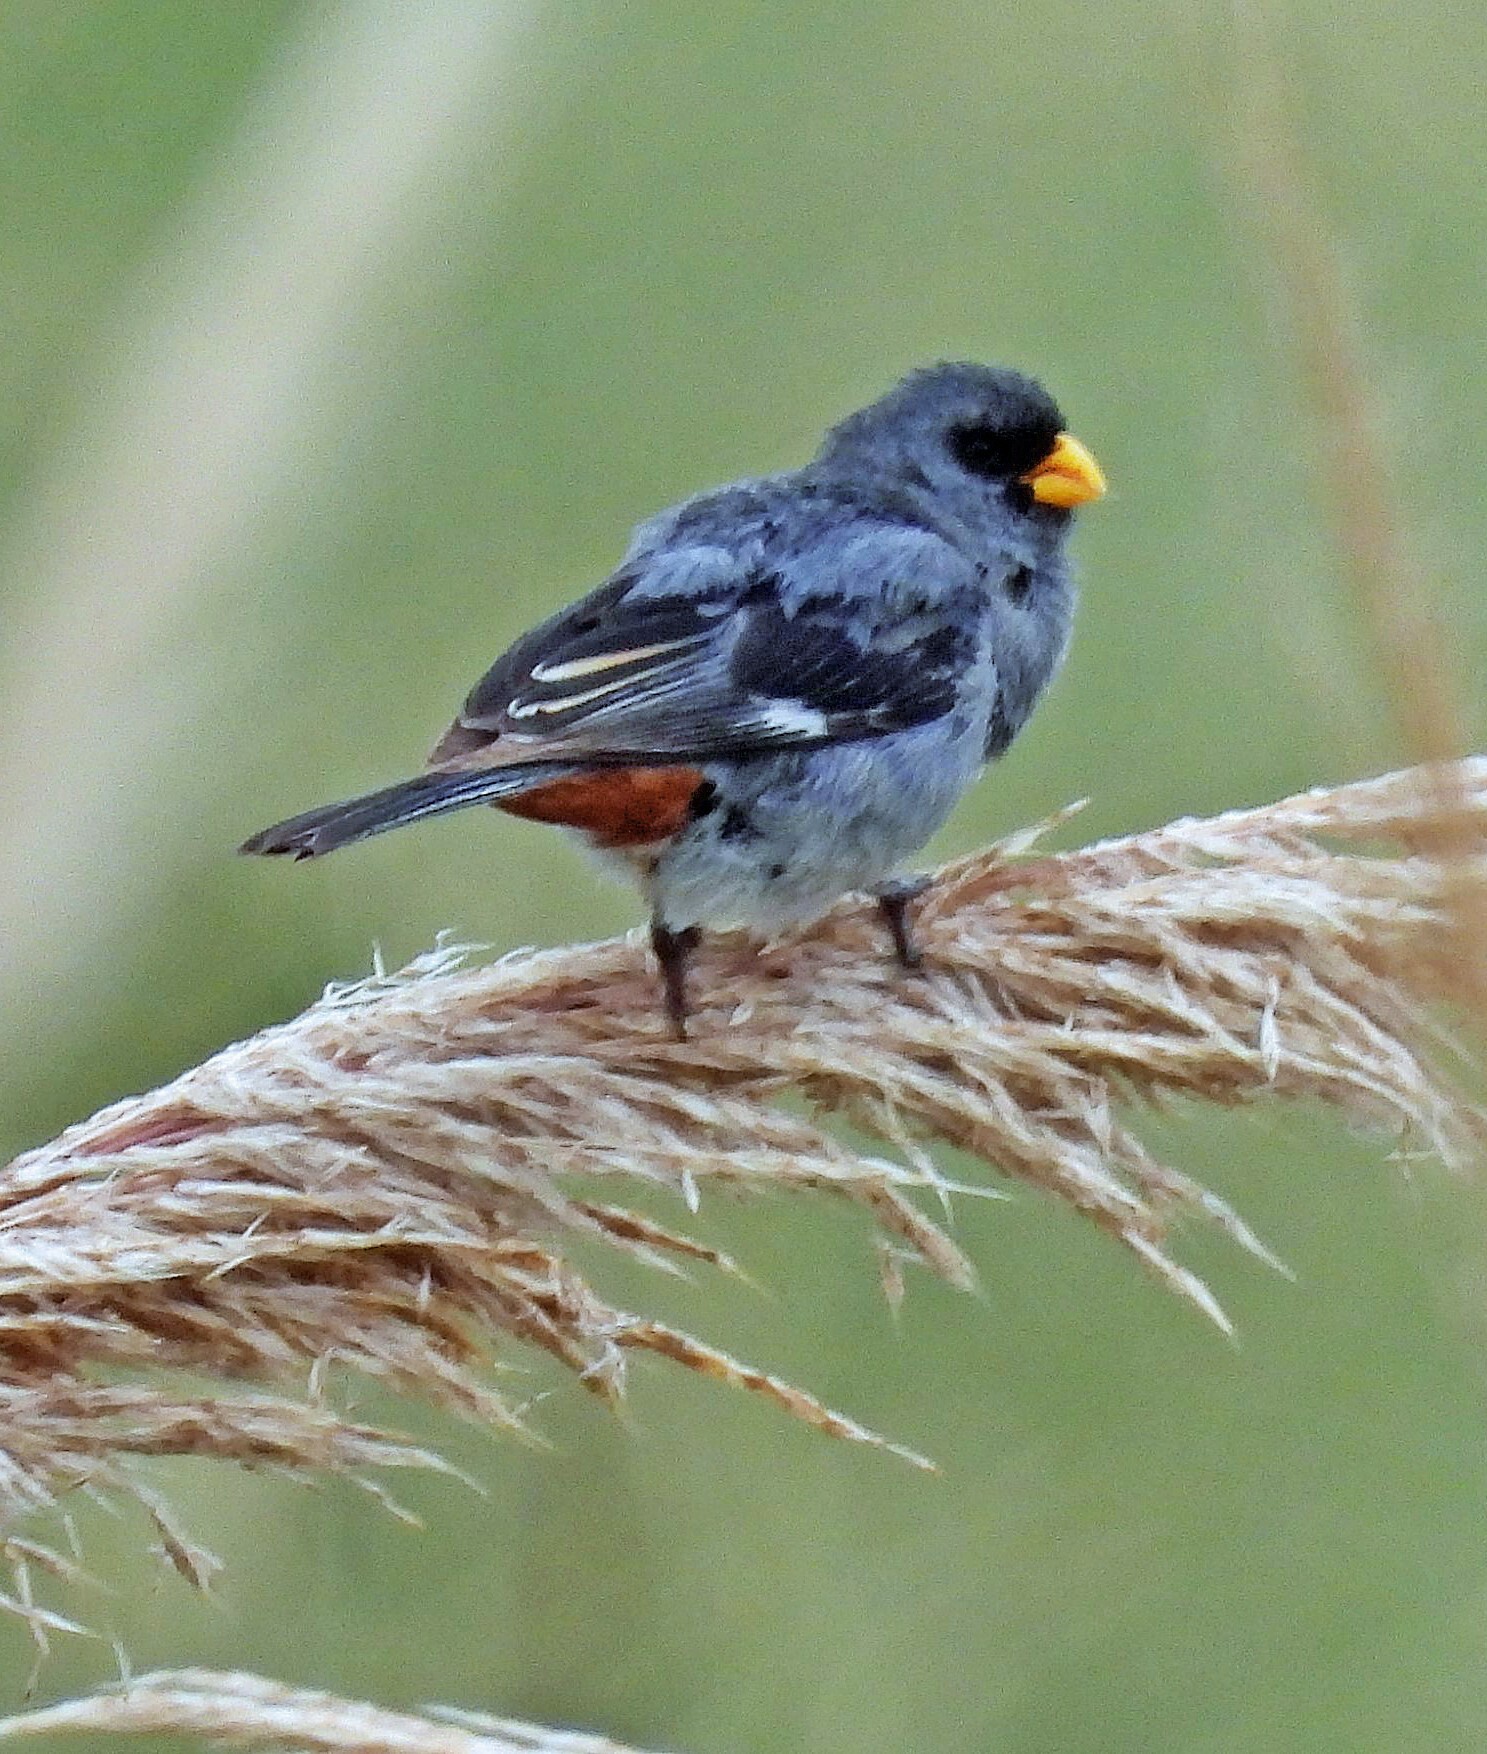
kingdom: Animalia
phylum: Chordata
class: Aves
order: Passeriformes
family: Thraupidae
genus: Catamenia
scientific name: Catamenia analis
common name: Band-tailed seedeater
